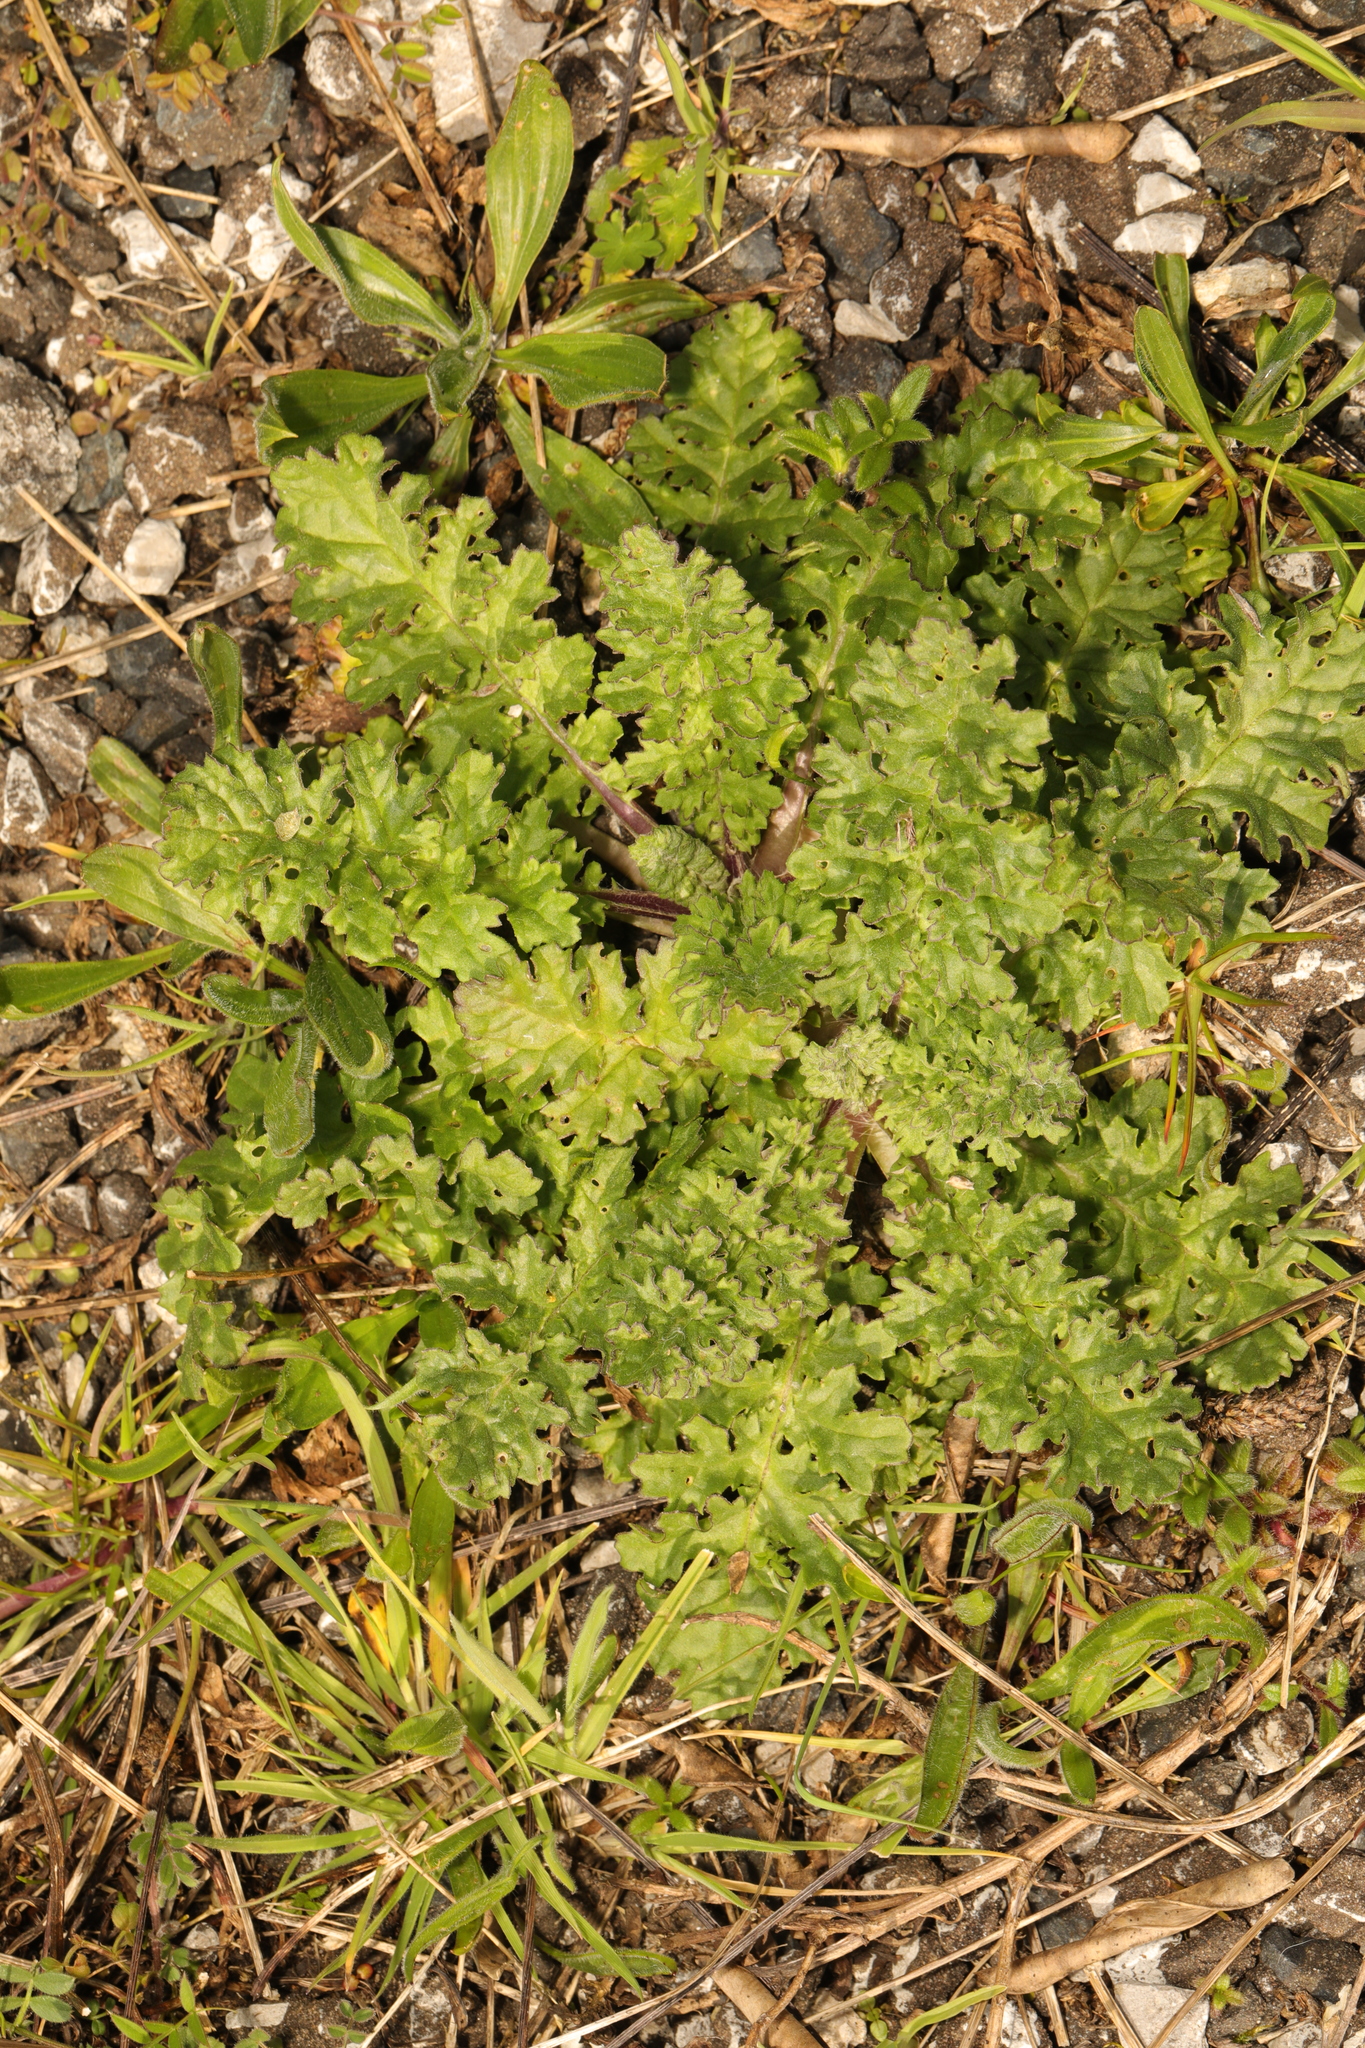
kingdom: Plantae
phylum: Tracheophyta
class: Magnoliopsida
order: Asterales
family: Asteraceae
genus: Jacobaea
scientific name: Jacobaea vulgaris
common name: Stinking willie
